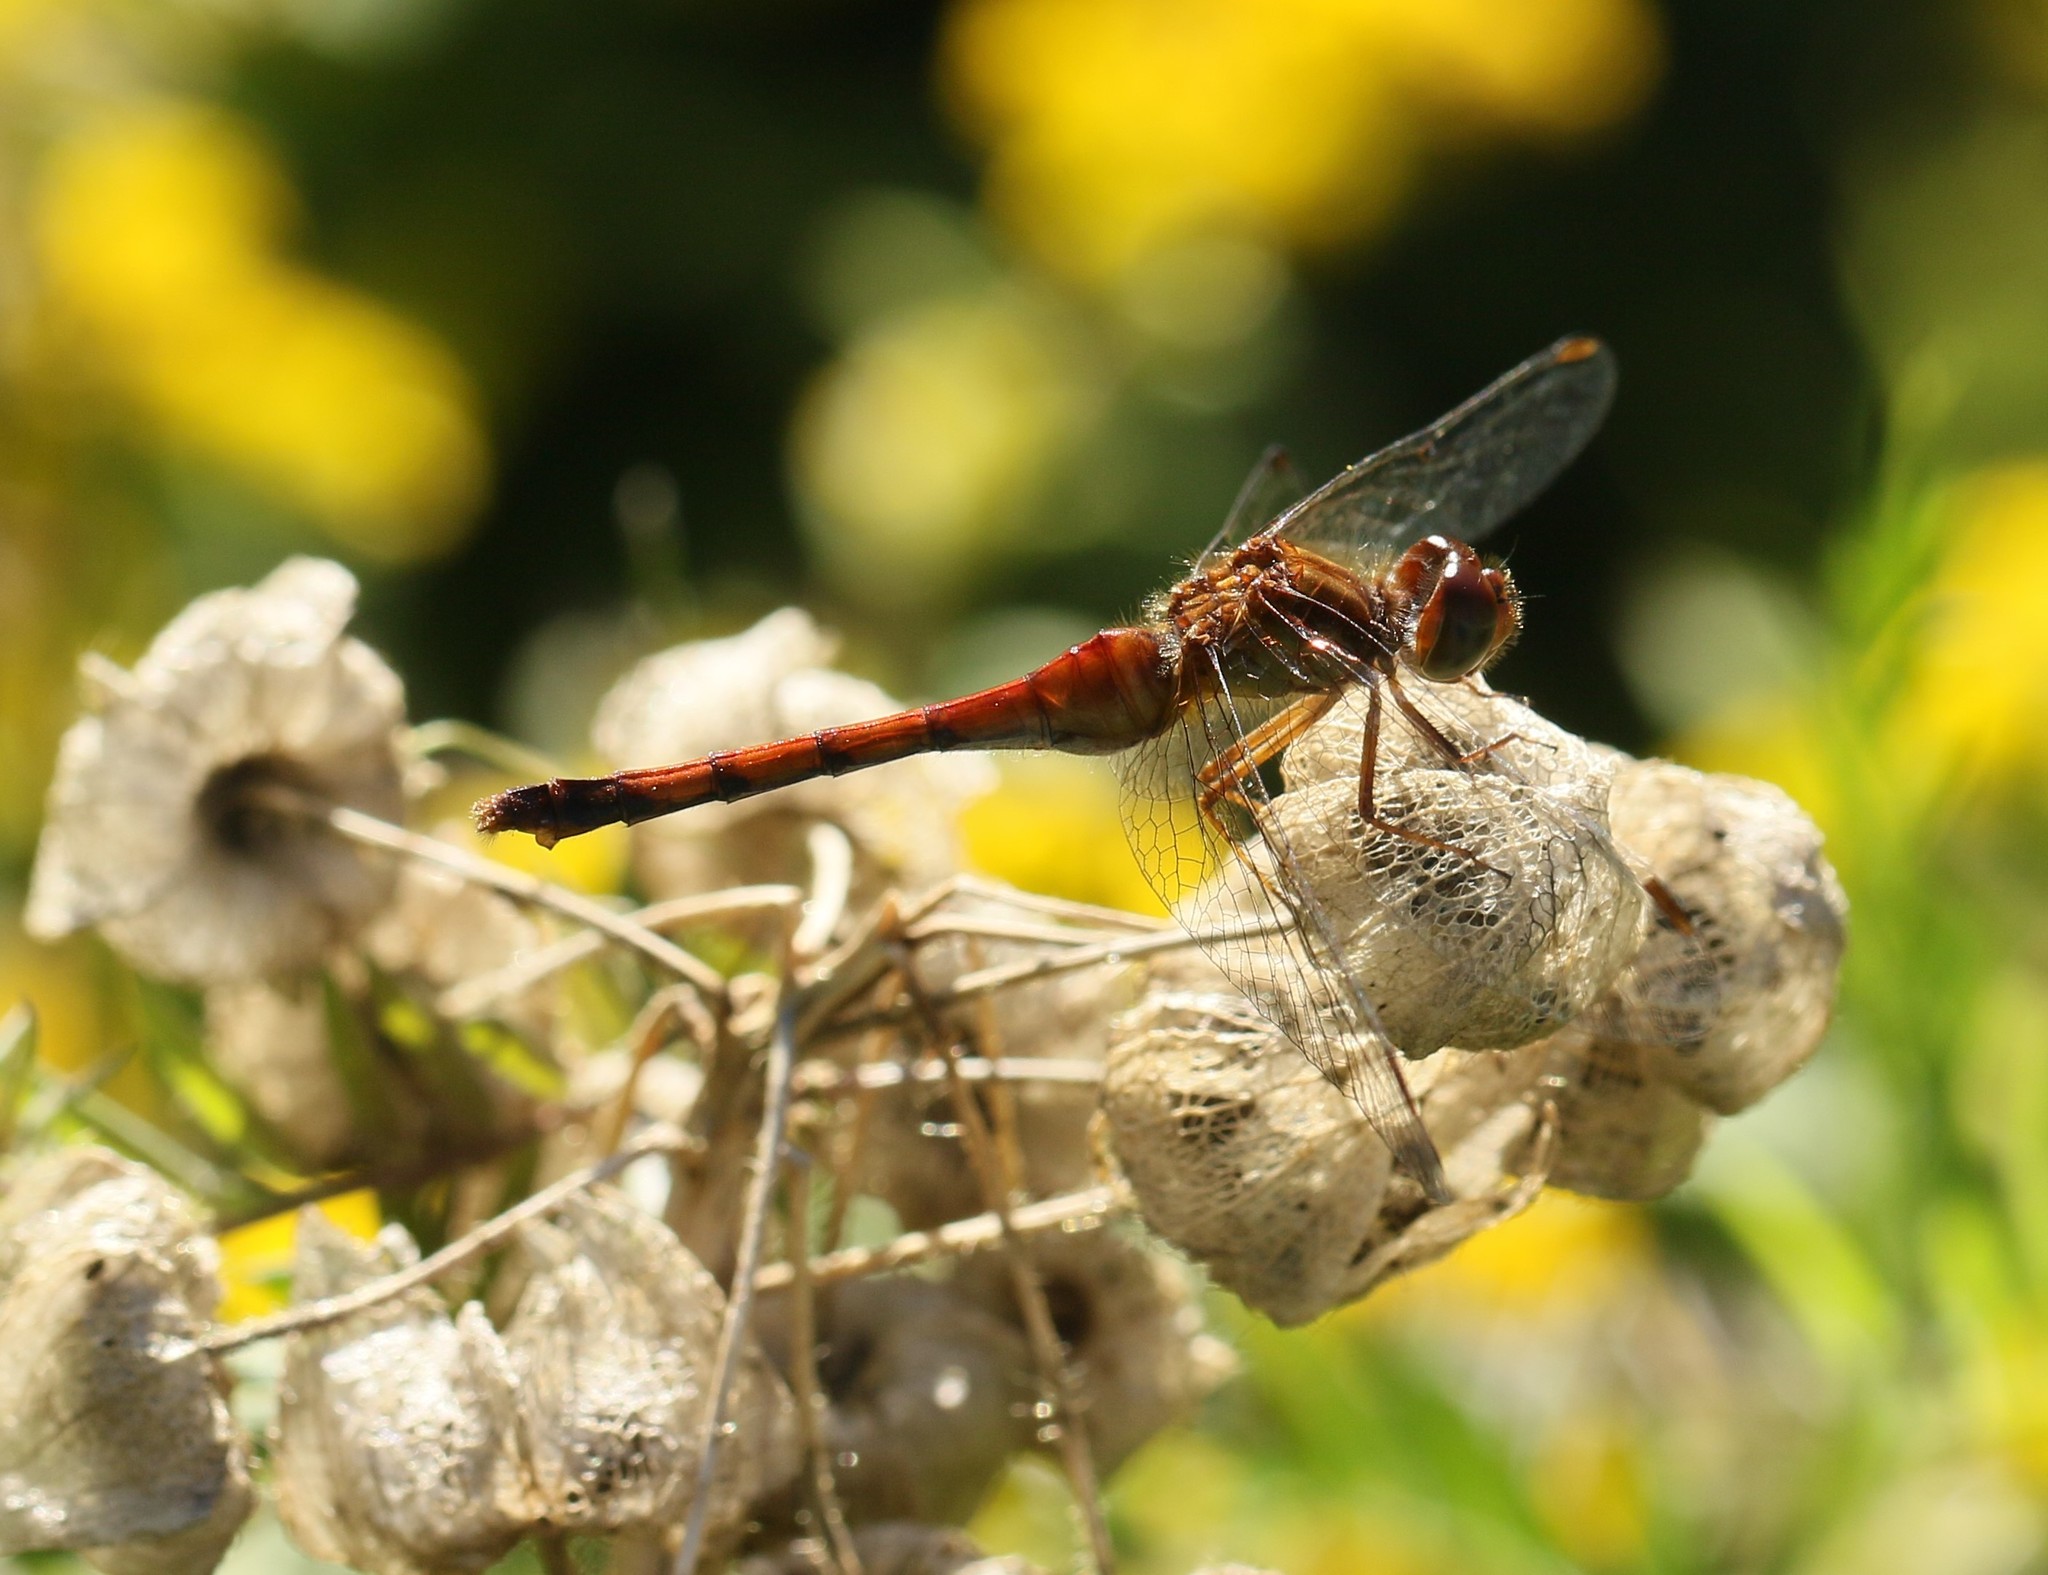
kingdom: Animalia
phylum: Arthropoda
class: Insecta
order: Odonata
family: Libellulidae
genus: Sympetrum
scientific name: Sympetrum vicinum
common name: Autumn meadowhawk
